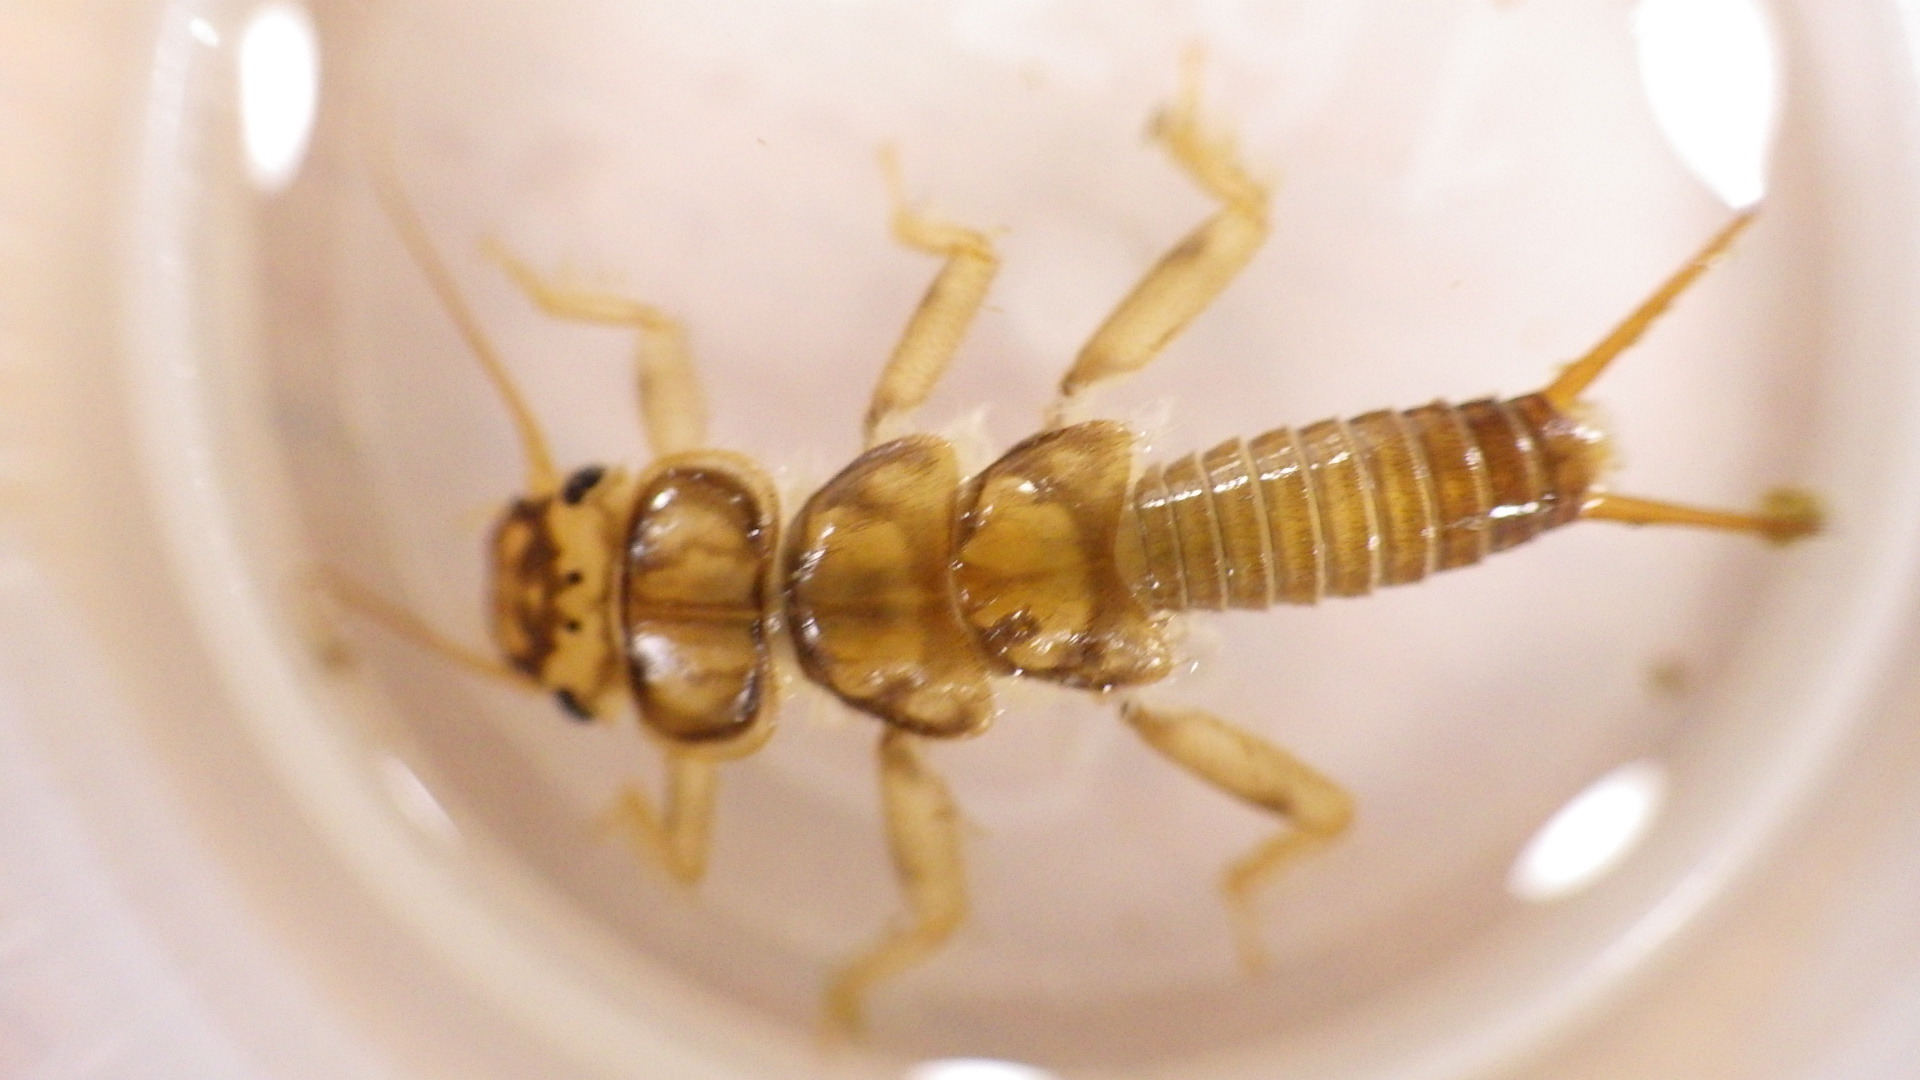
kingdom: Animalia
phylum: Arthropoda
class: Insecta
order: Plecoptera
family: Perlidae
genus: Eccoptura
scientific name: Eccoptura xanthenes
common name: Yellow stone
